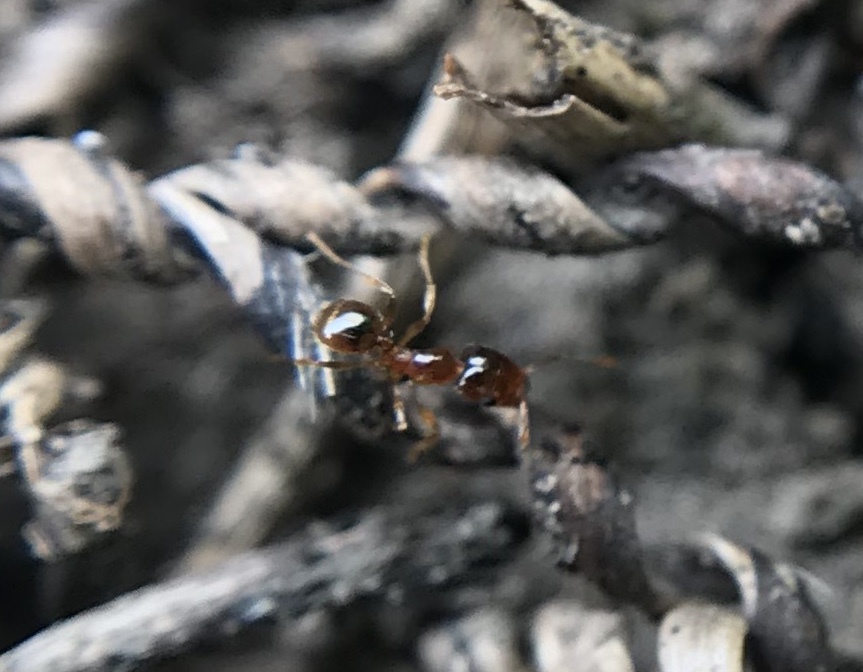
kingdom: Animalia
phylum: Arthropoda
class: Insecta
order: Hymenoptera
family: Formicidae
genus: Pheidole
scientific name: Pheidole californica
